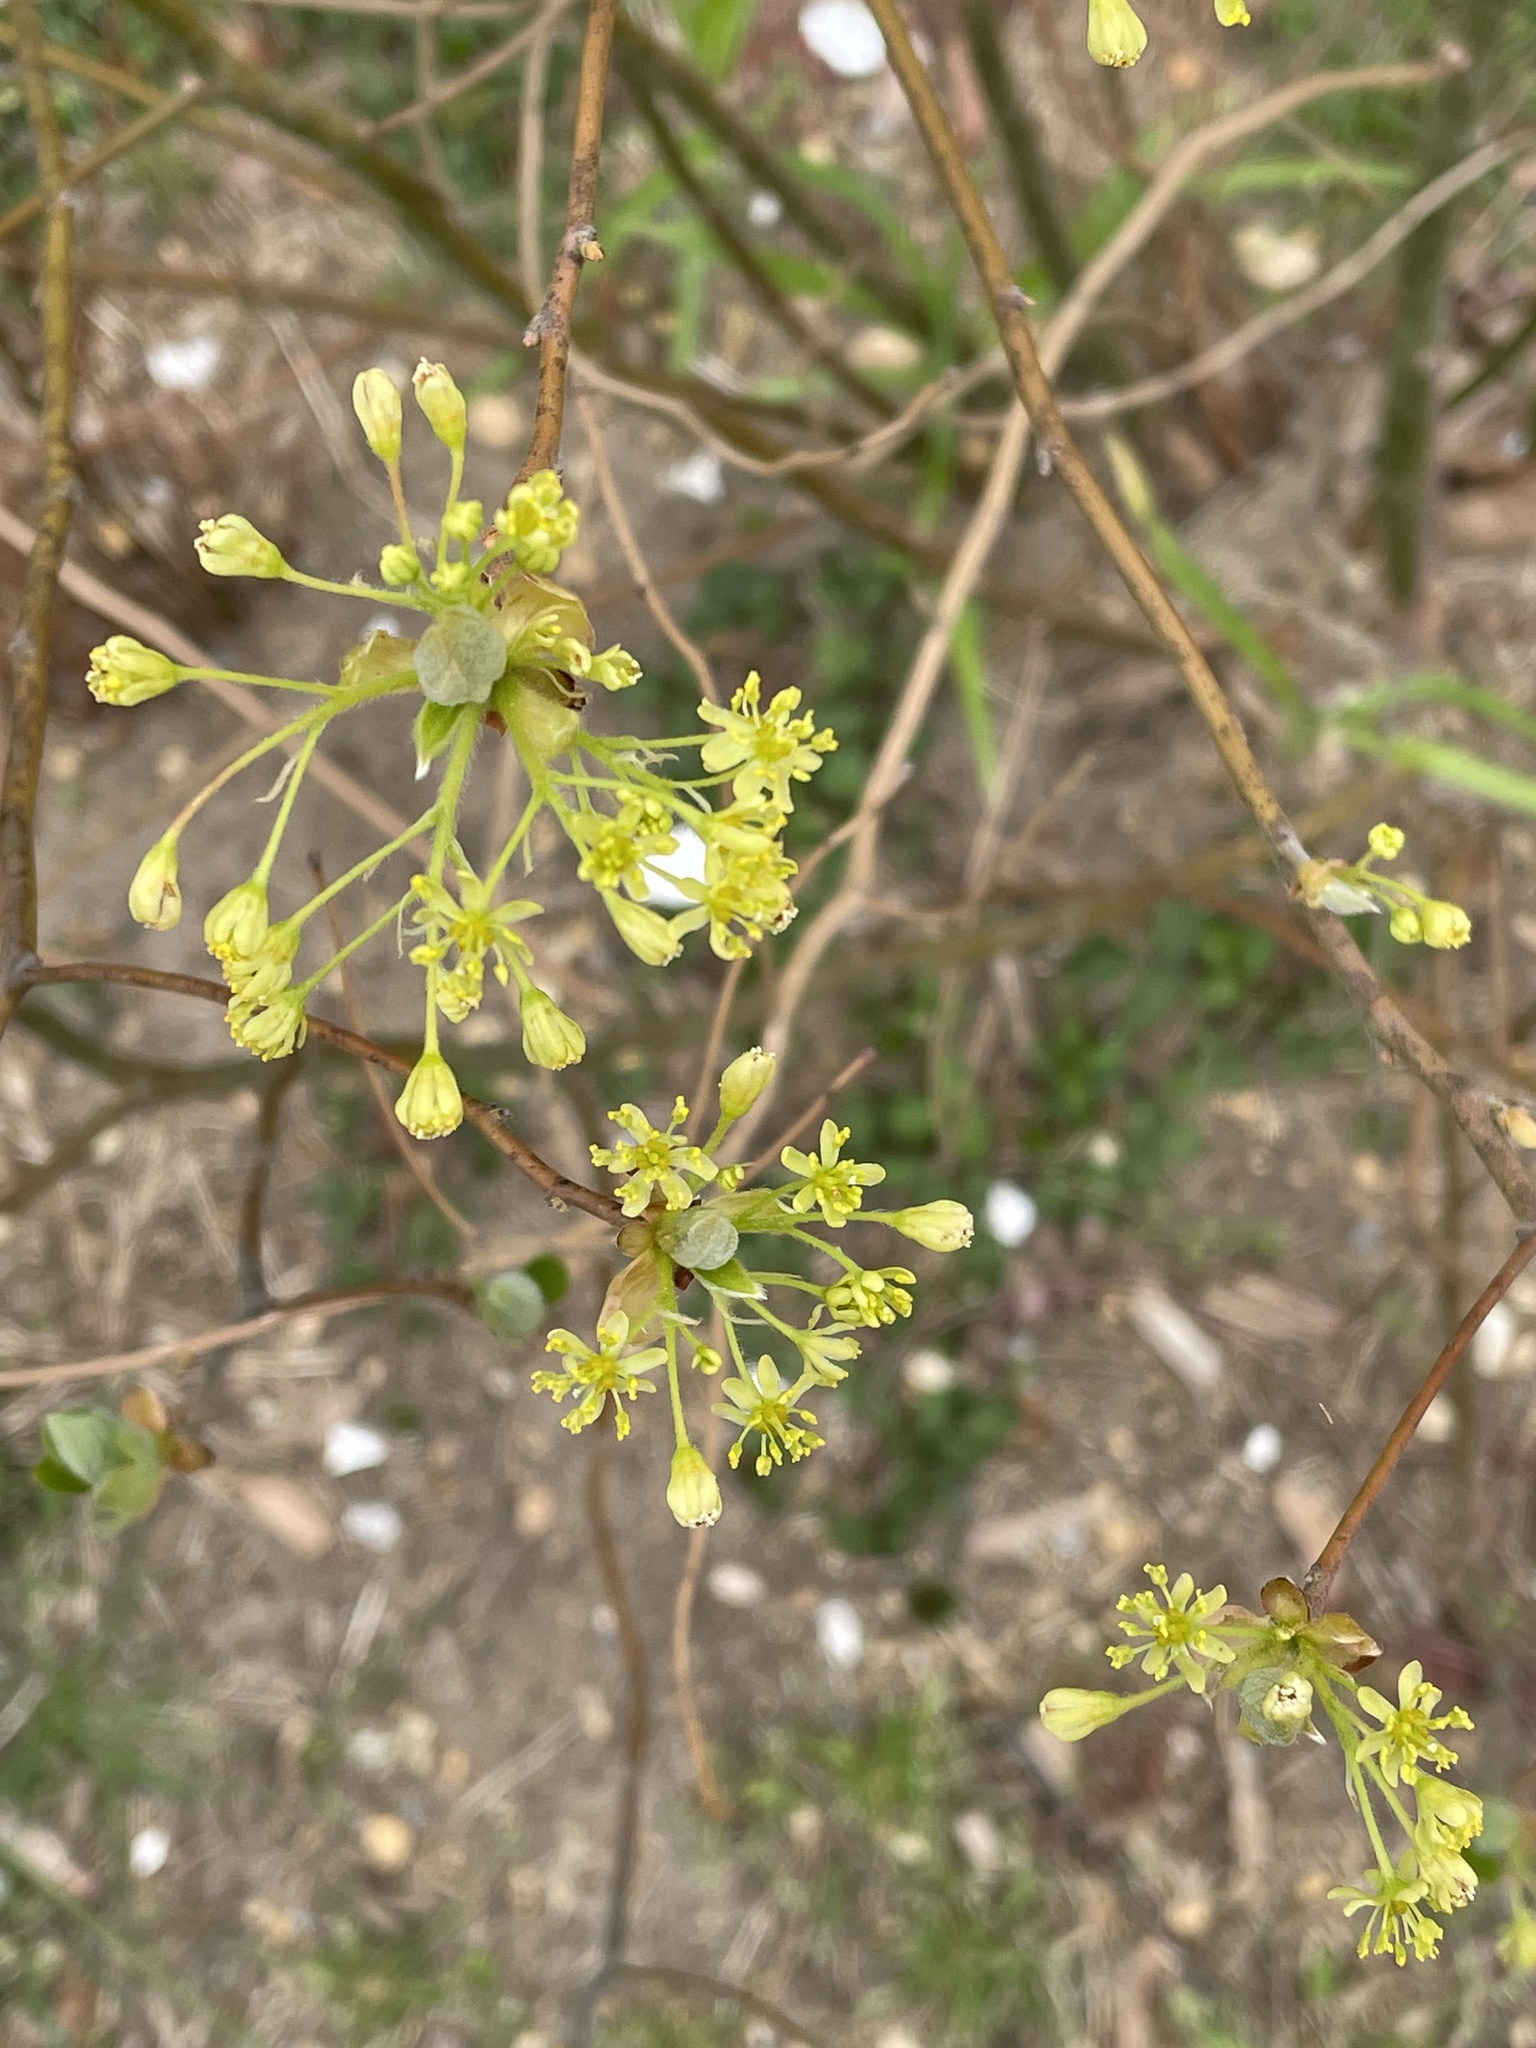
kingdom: Plantae
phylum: Tracheophyta
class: Magnoliopsida
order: Laurales
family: Lauraceae
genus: Sassafras
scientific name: Sassafras albidum
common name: Sassafras
